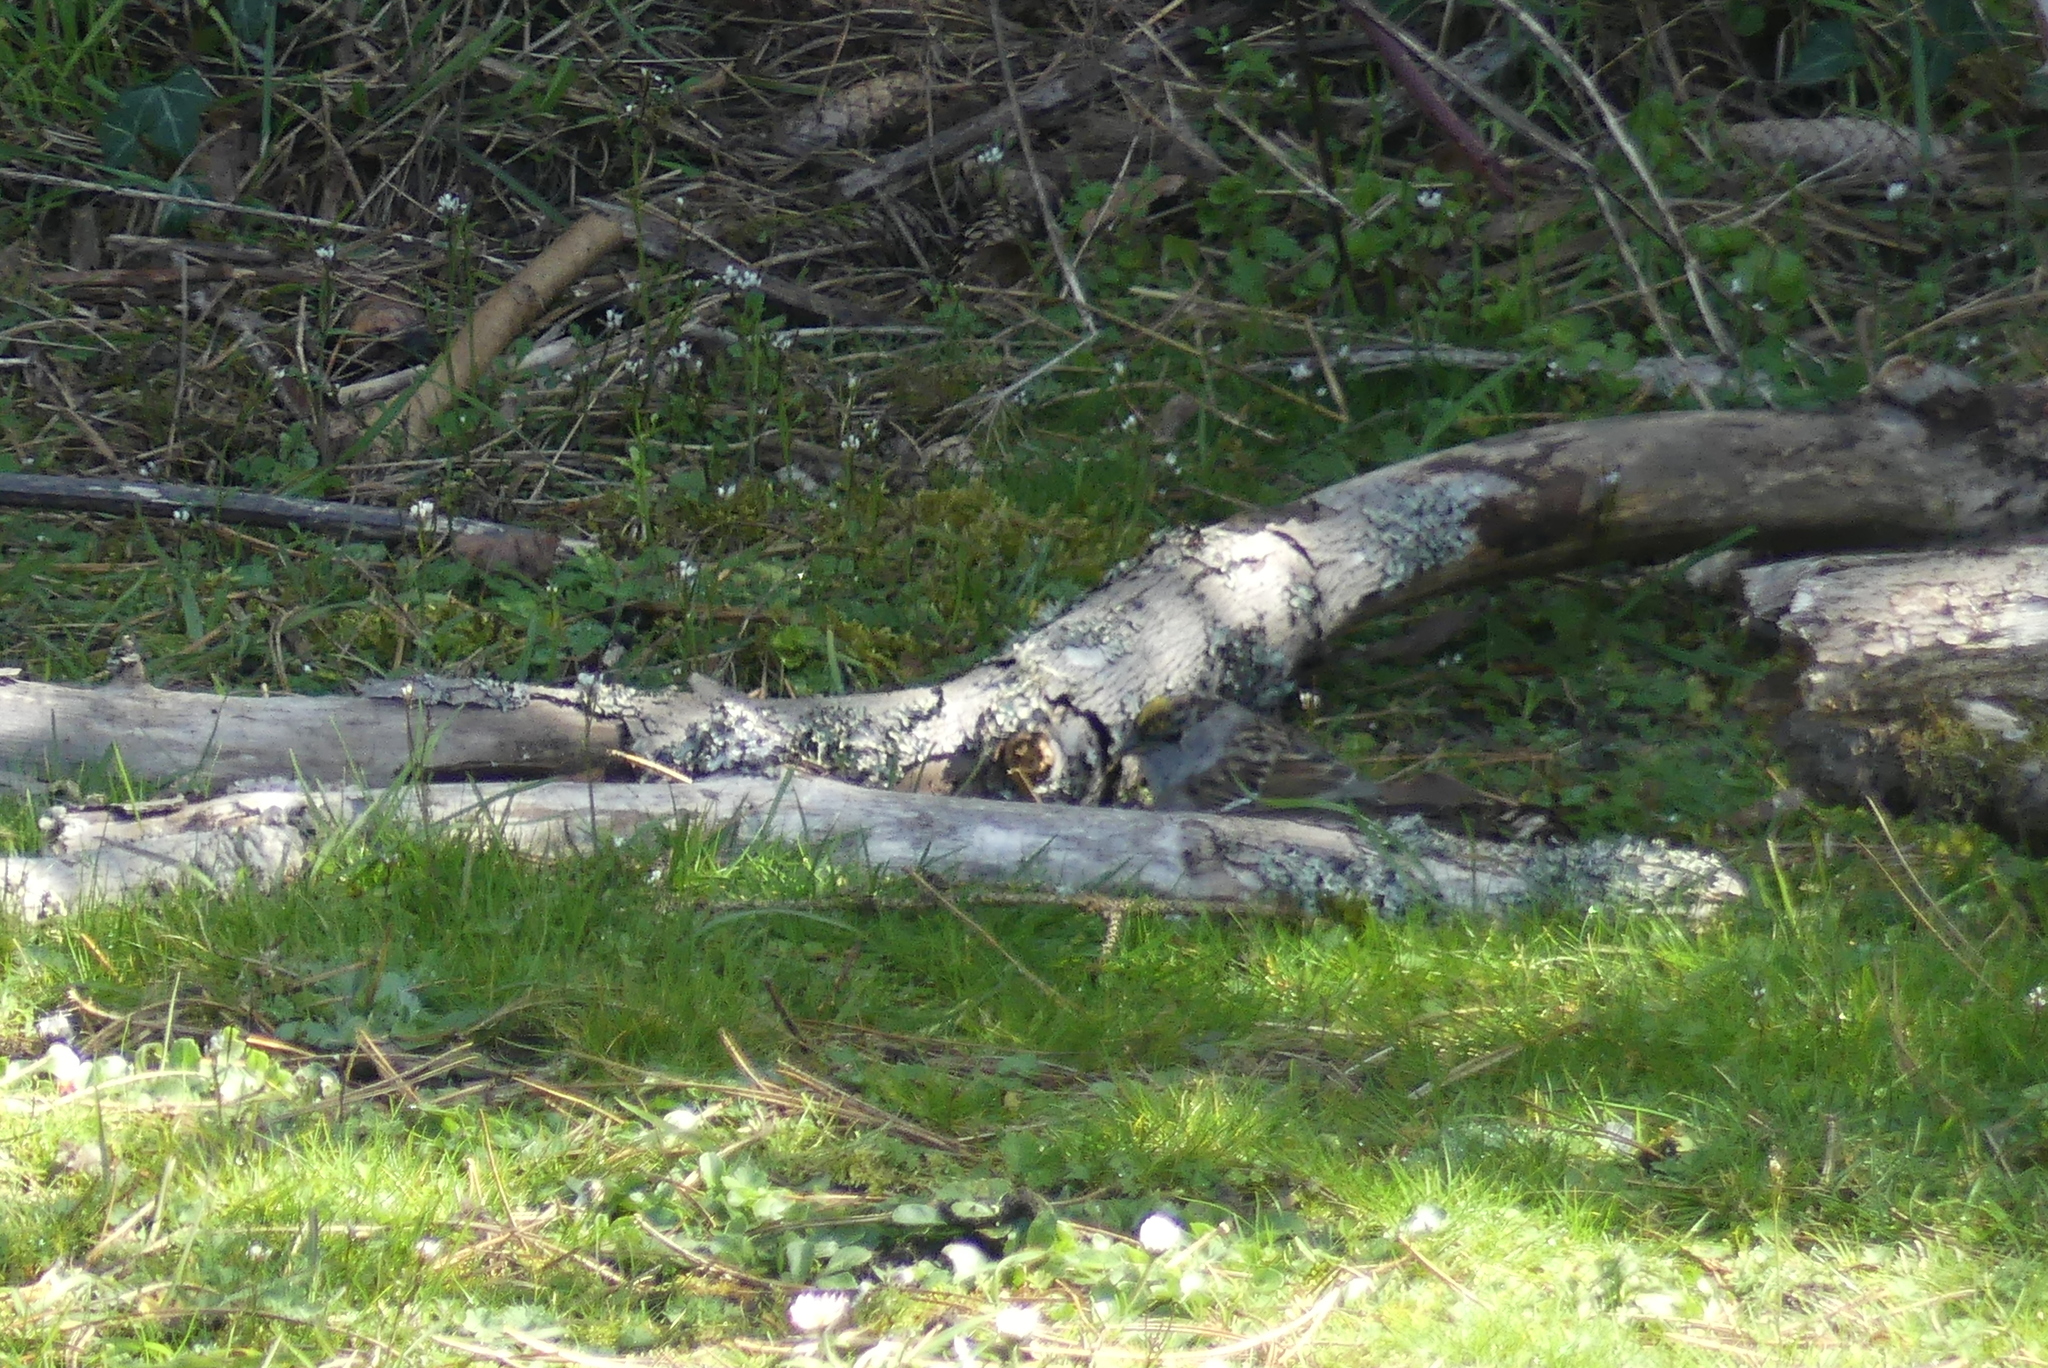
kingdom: Animalia
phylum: Chordata
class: Aves
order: Passeriformes
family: Passerellidae
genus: Zonotrichia
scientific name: Zonotrichia atricapilla
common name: Golden-crowned sparrow
